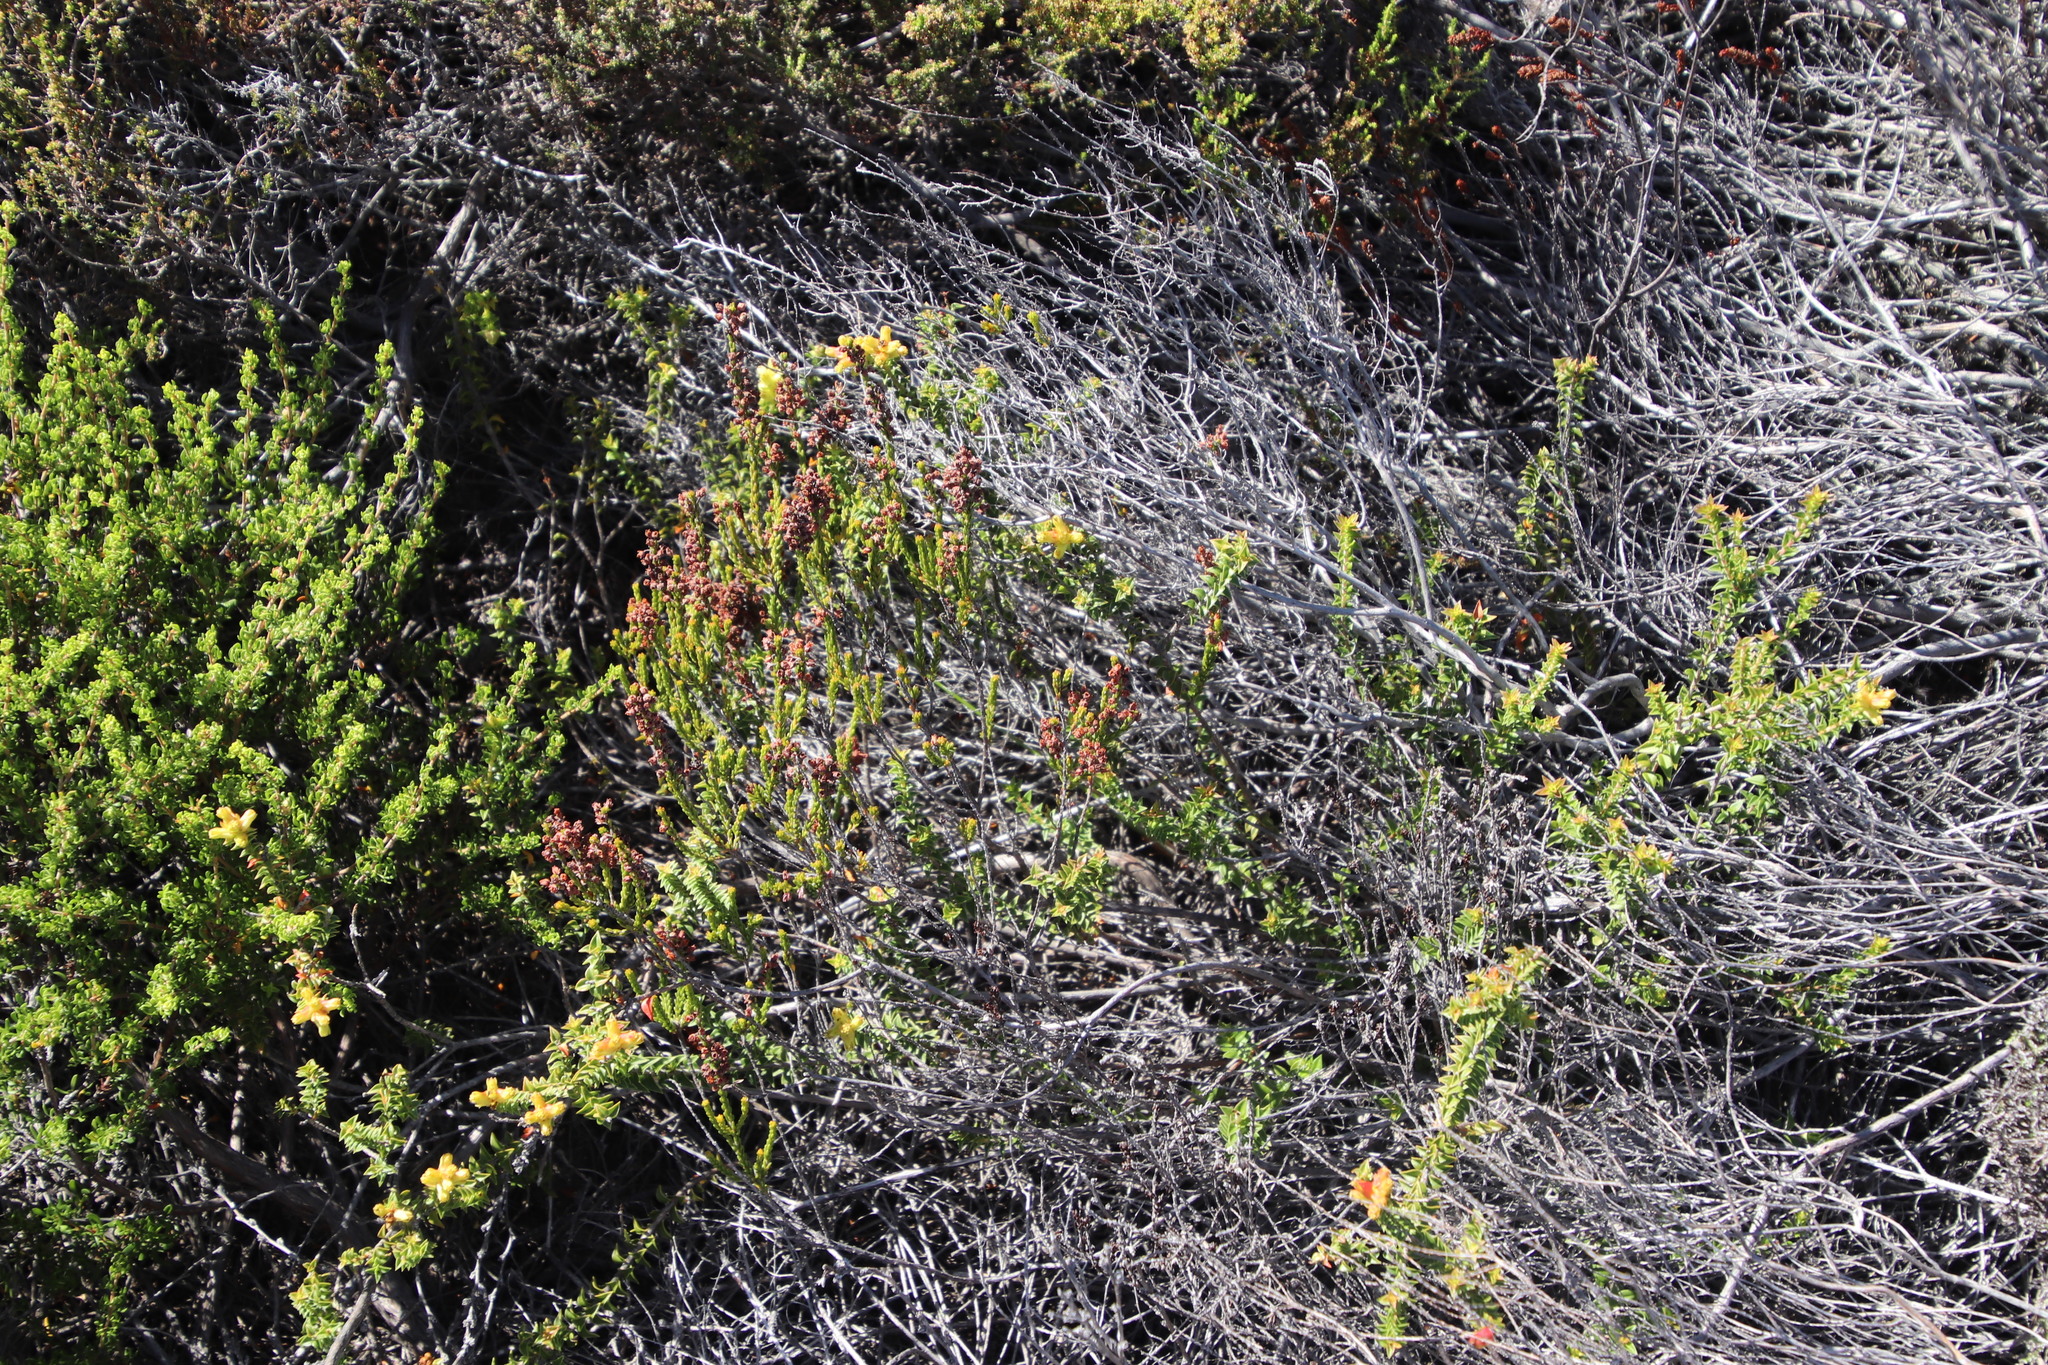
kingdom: Plantae
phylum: Tracheophyta
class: Magnoliopsida
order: Myrtales
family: Penaeaceae
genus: Penaea
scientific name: Penaea mucronata
